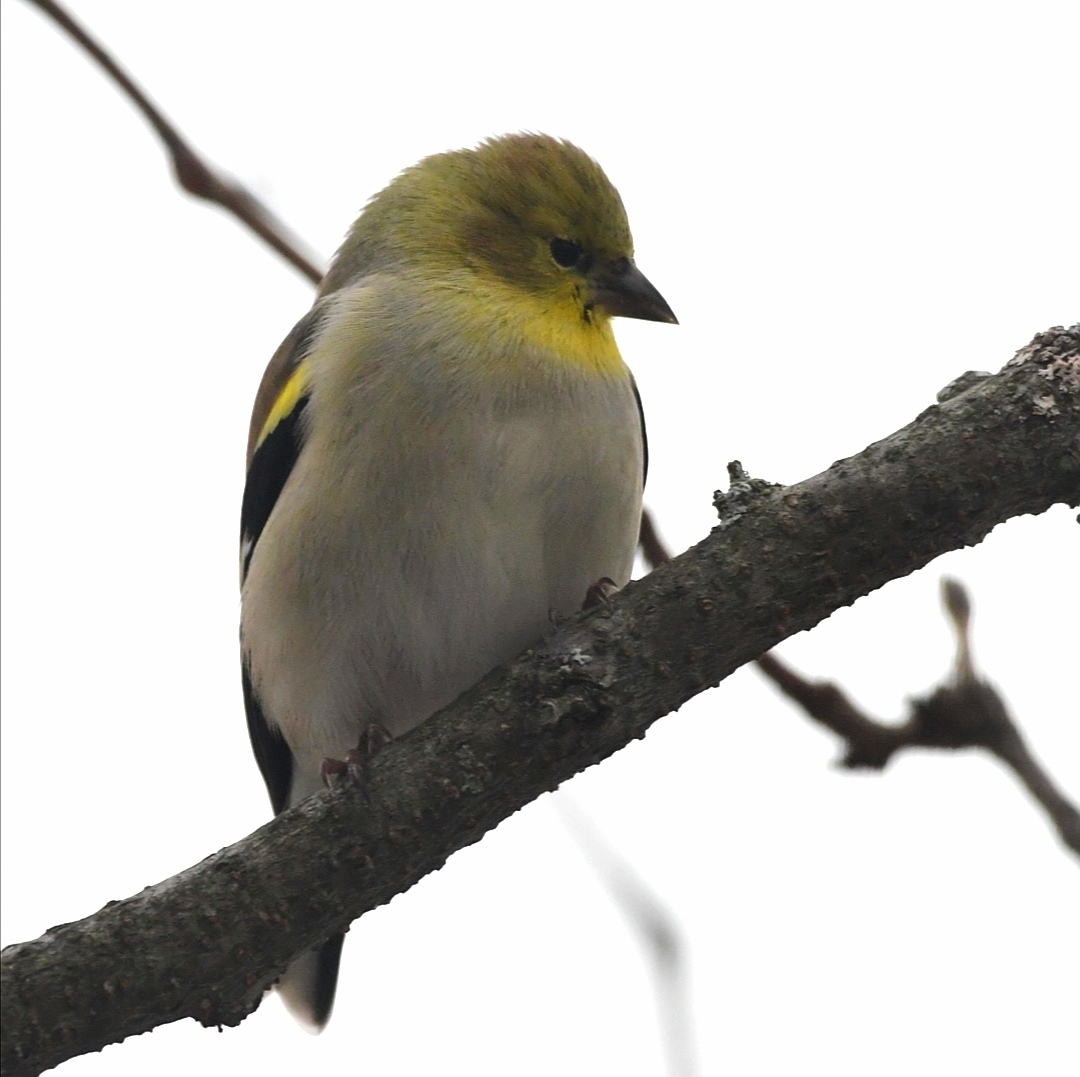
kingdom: Animalia
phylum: Chordata
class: Aves
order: Passeriformes
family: Fringillidae
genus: Spinus
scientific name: Spinus tristis
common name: American goldfinch
